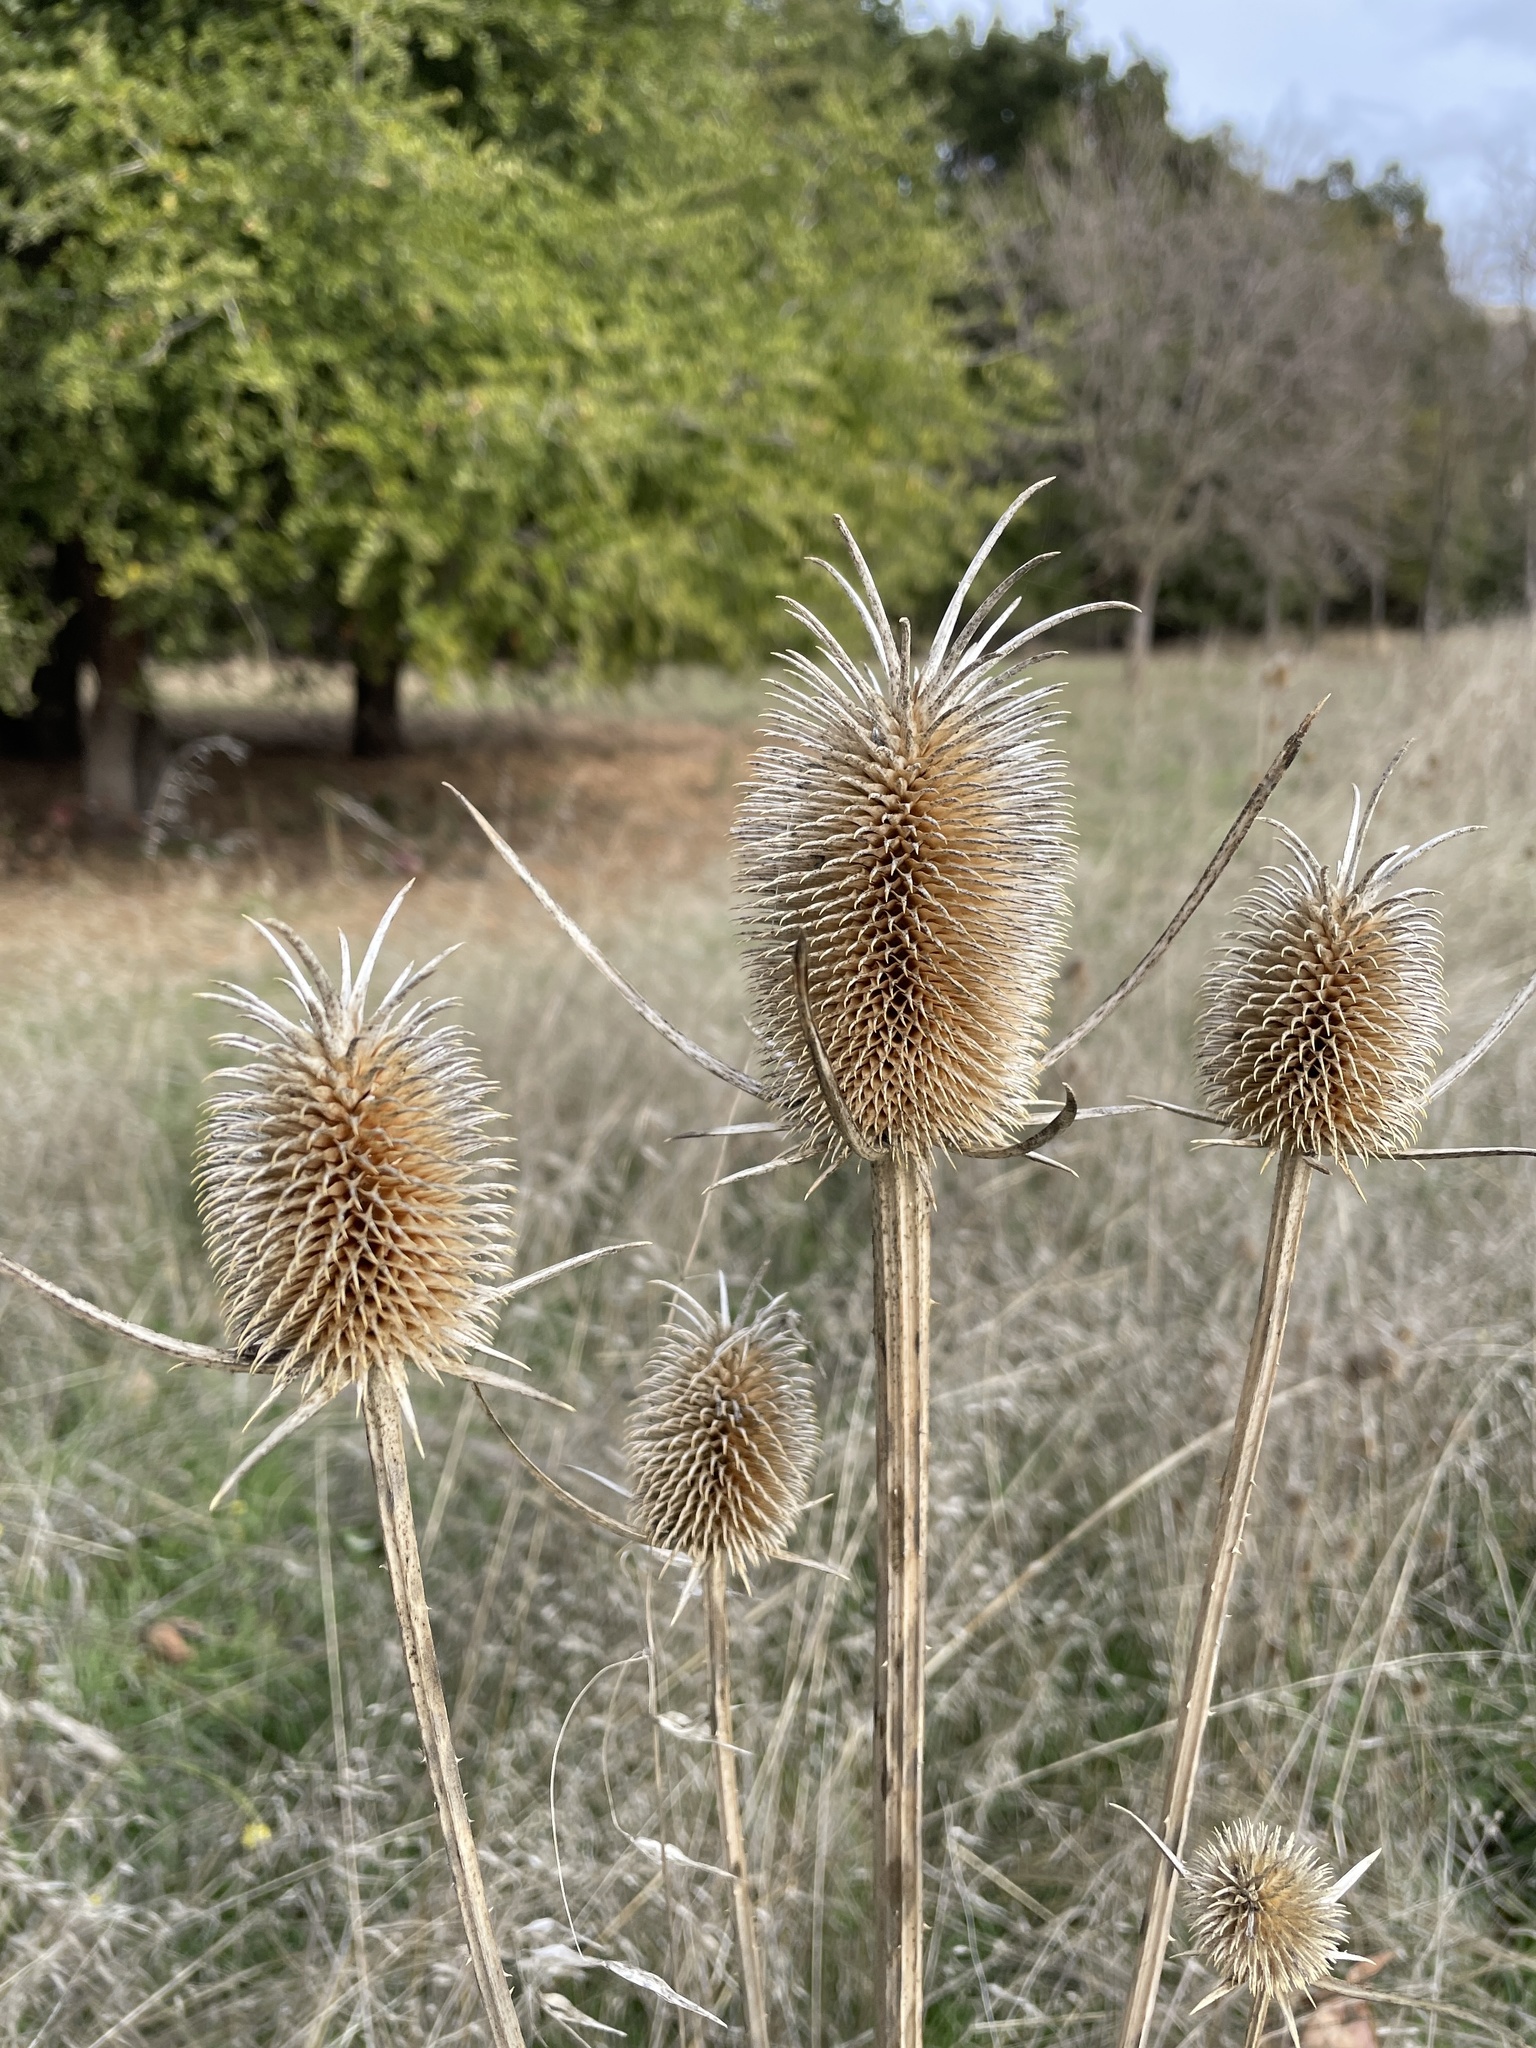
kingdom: Plantae
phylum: Tracheophyta
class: Magnoliopsida
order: Dipsacales
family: Caprifoliaceae
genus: Dipsacus
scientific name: Dipsacus sativus
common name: Fuller's teasel
